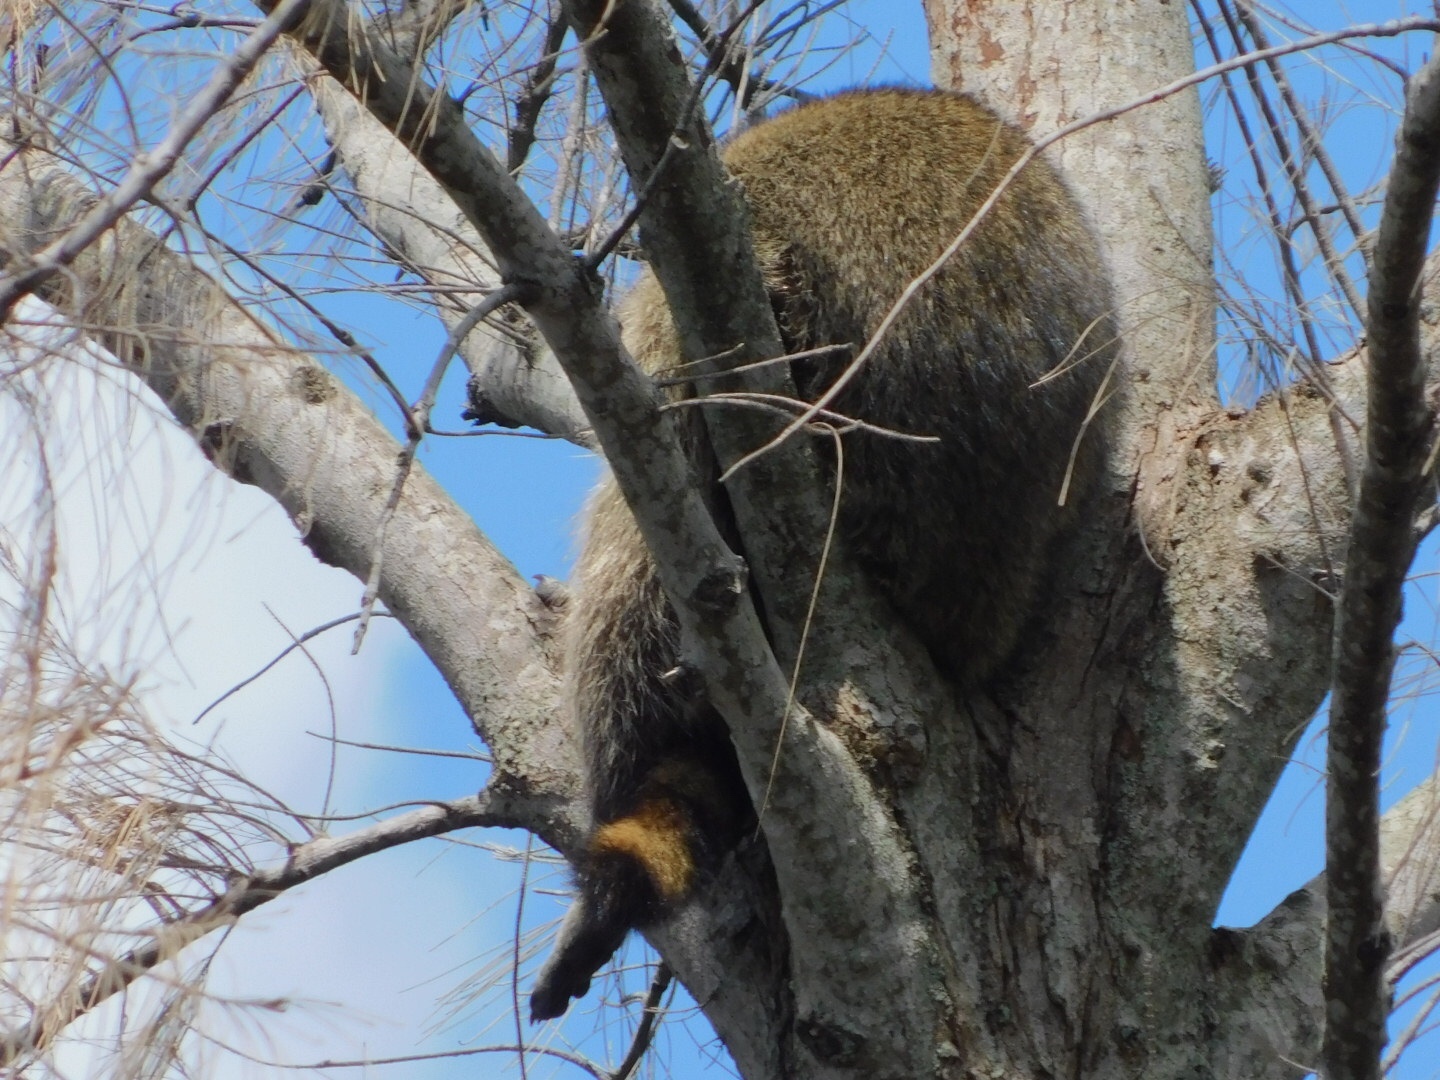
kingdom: Animalia
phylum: Chordata
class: Mammalia
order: Carnivora
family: Procyonidae
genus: Procyon
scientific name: Procyon lotor
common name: Raccoon
